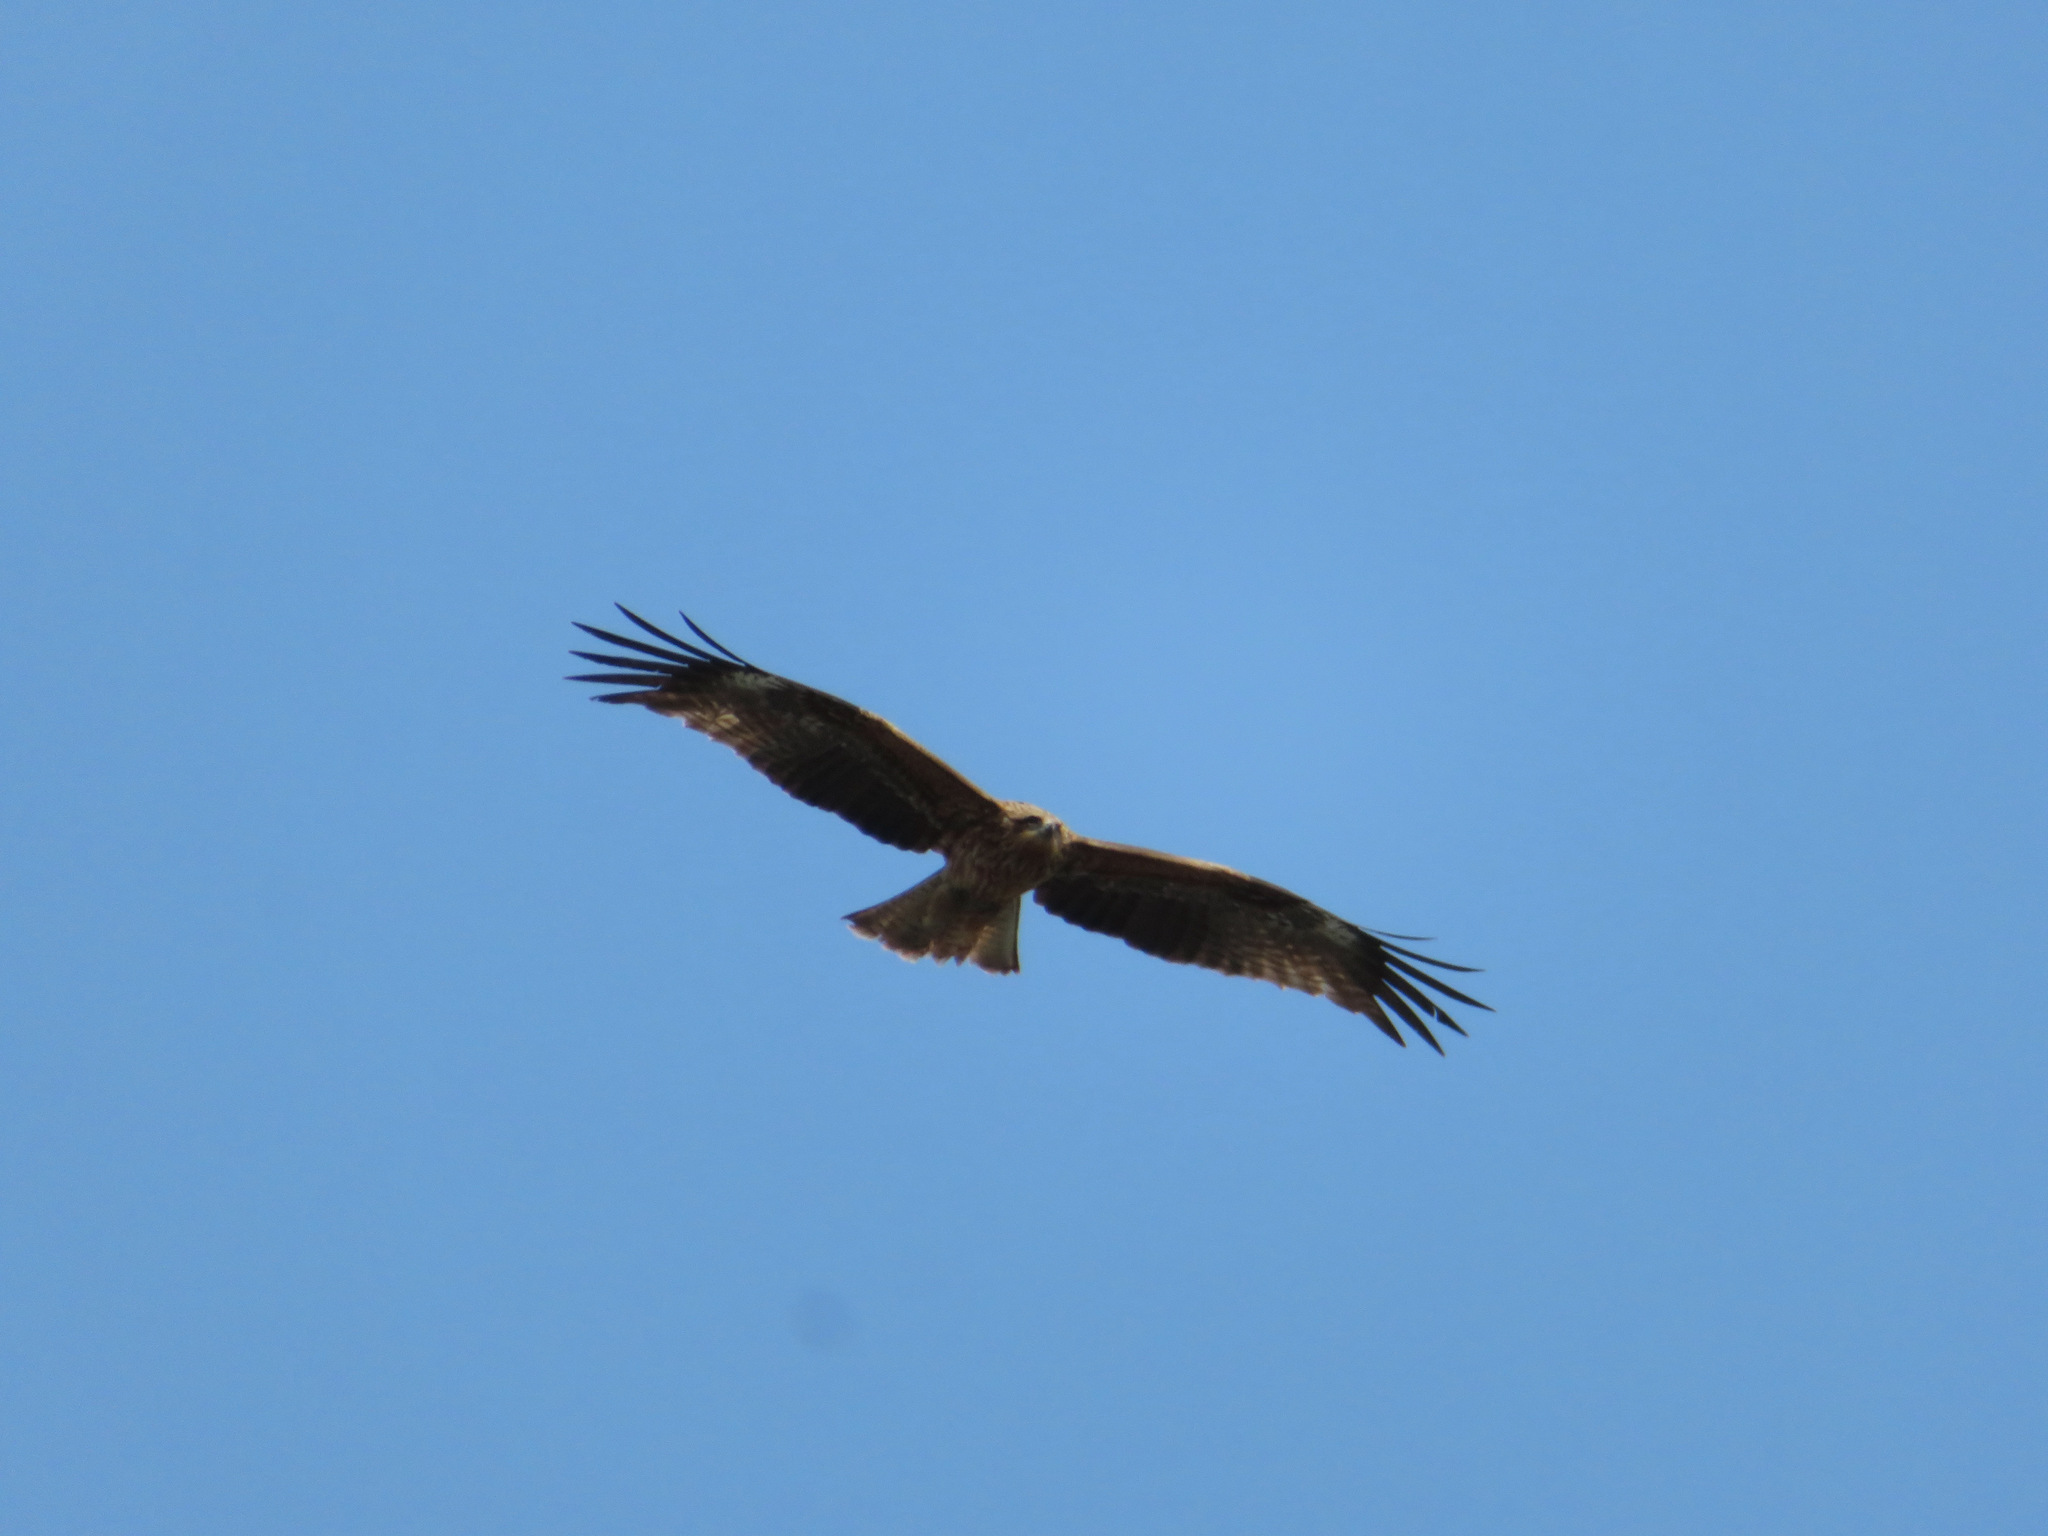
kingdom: Animalia
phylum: Chordata
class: Aves
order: Accipitriformes
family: Accipitridae
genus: Milvus
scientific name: Milvus migrans
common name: Black kite
